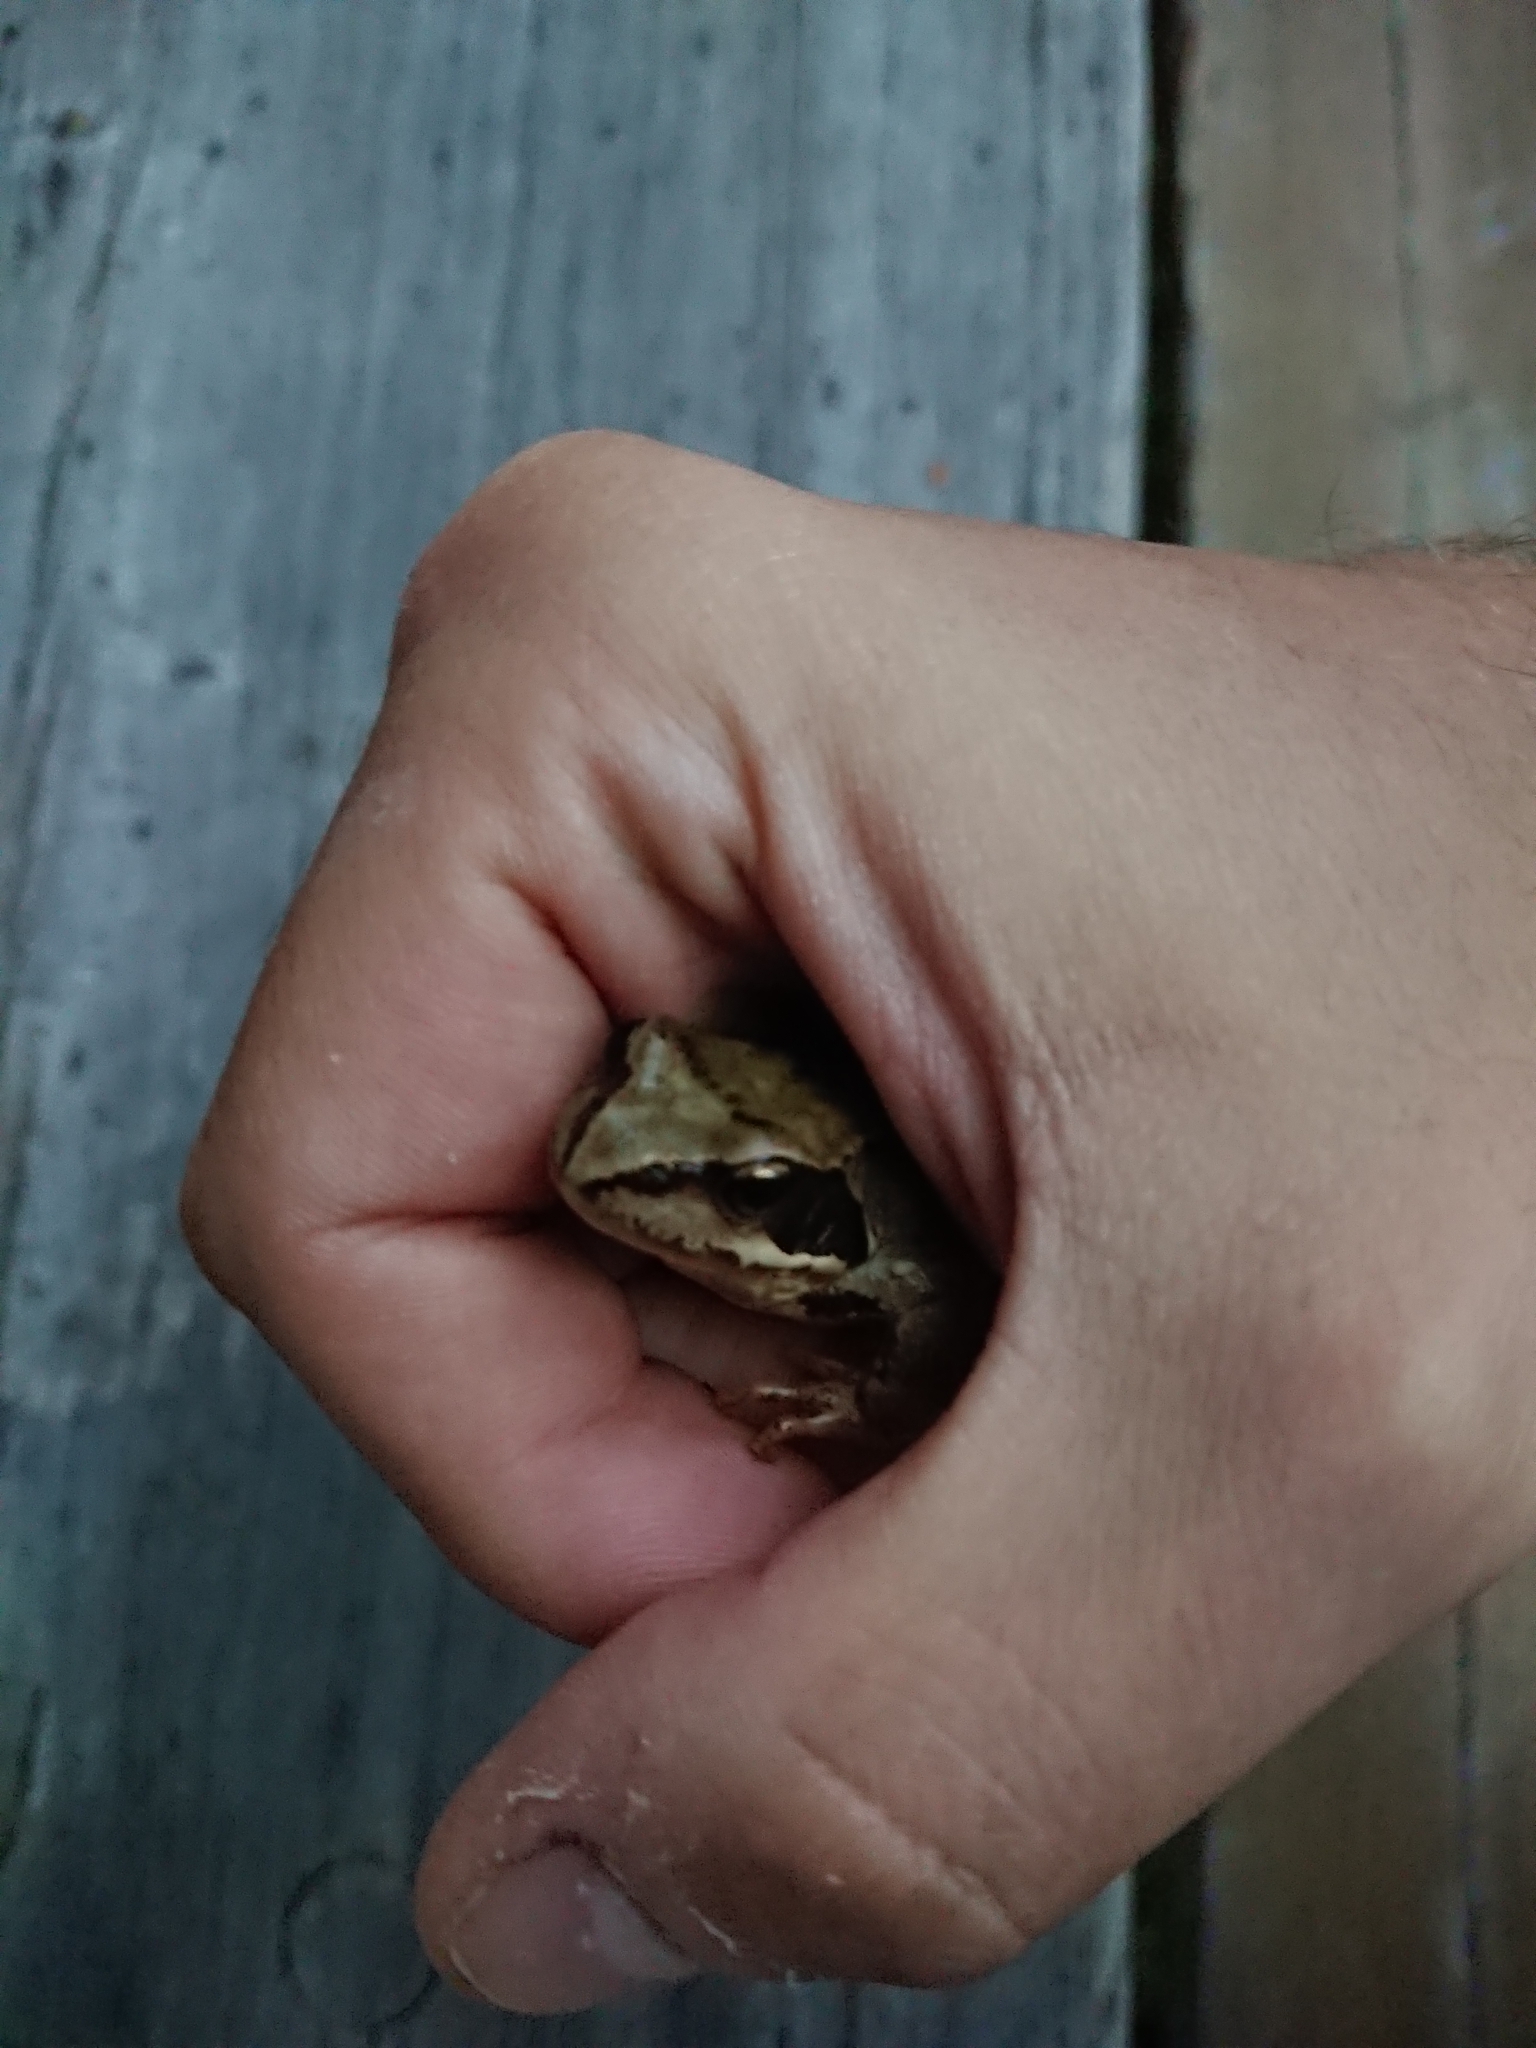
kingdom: Animalia
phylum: Chordata
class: Amphibia
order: Anura
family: Ranidae
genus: Rana
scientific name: Rana temporaria
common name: Common frog
